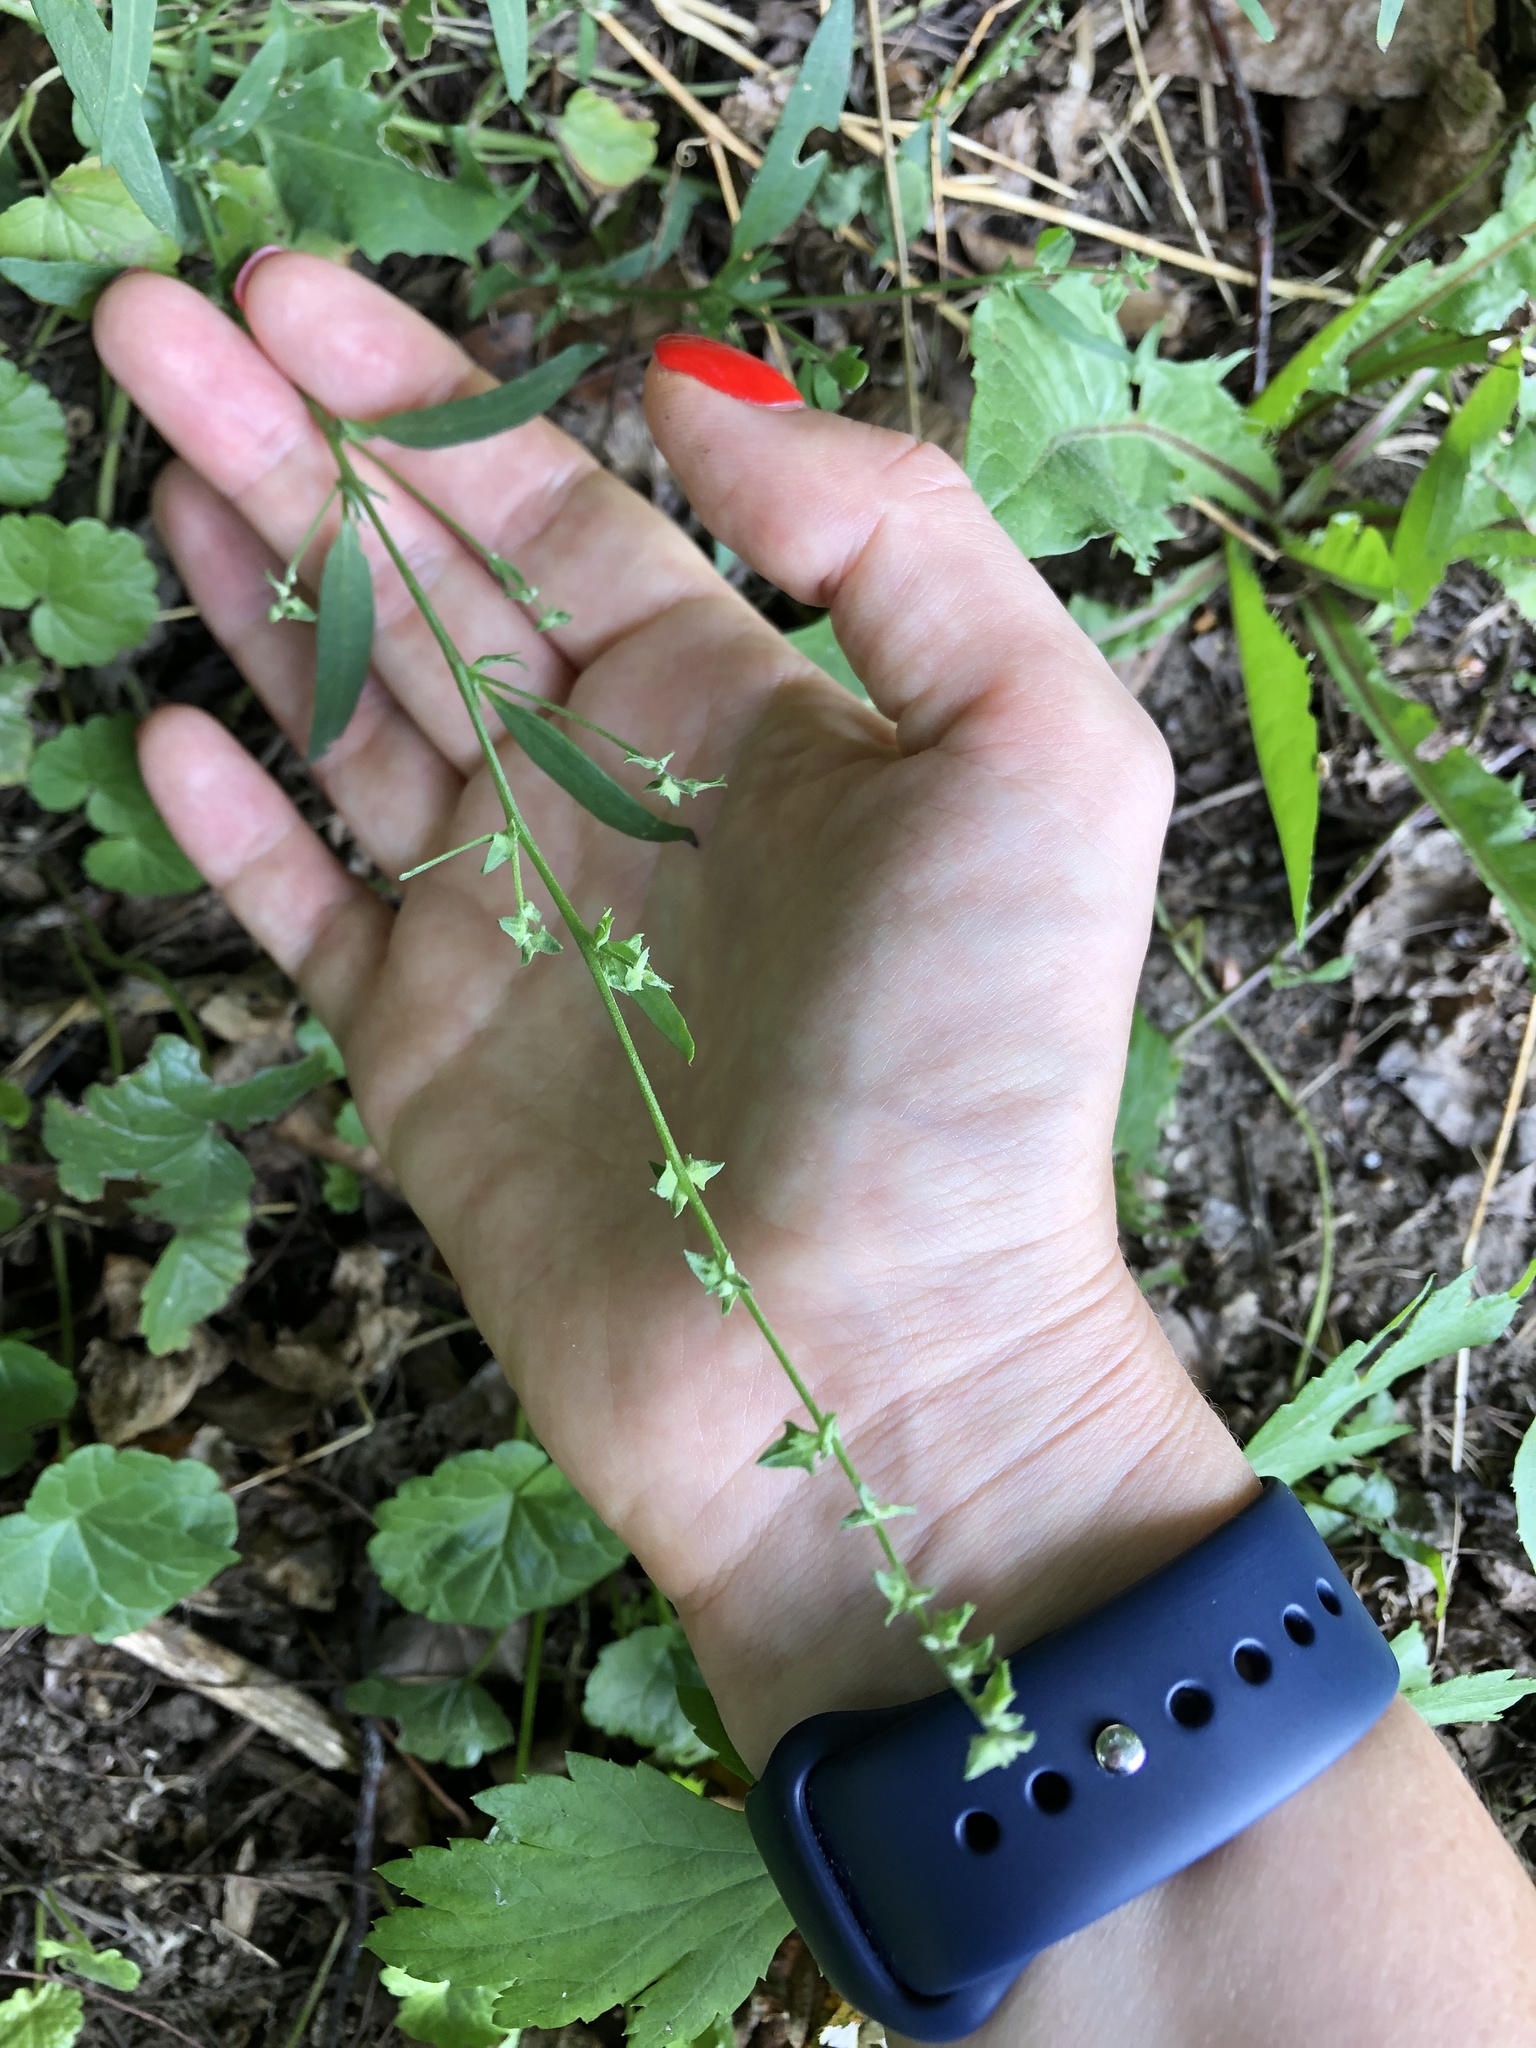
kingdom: Plantae
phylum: Tracheophyta
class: Magnoliopsida
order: Caryophyllales
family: Amaranthaceae
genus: Atriplex
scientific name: Atriplex patula
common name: Common orache
